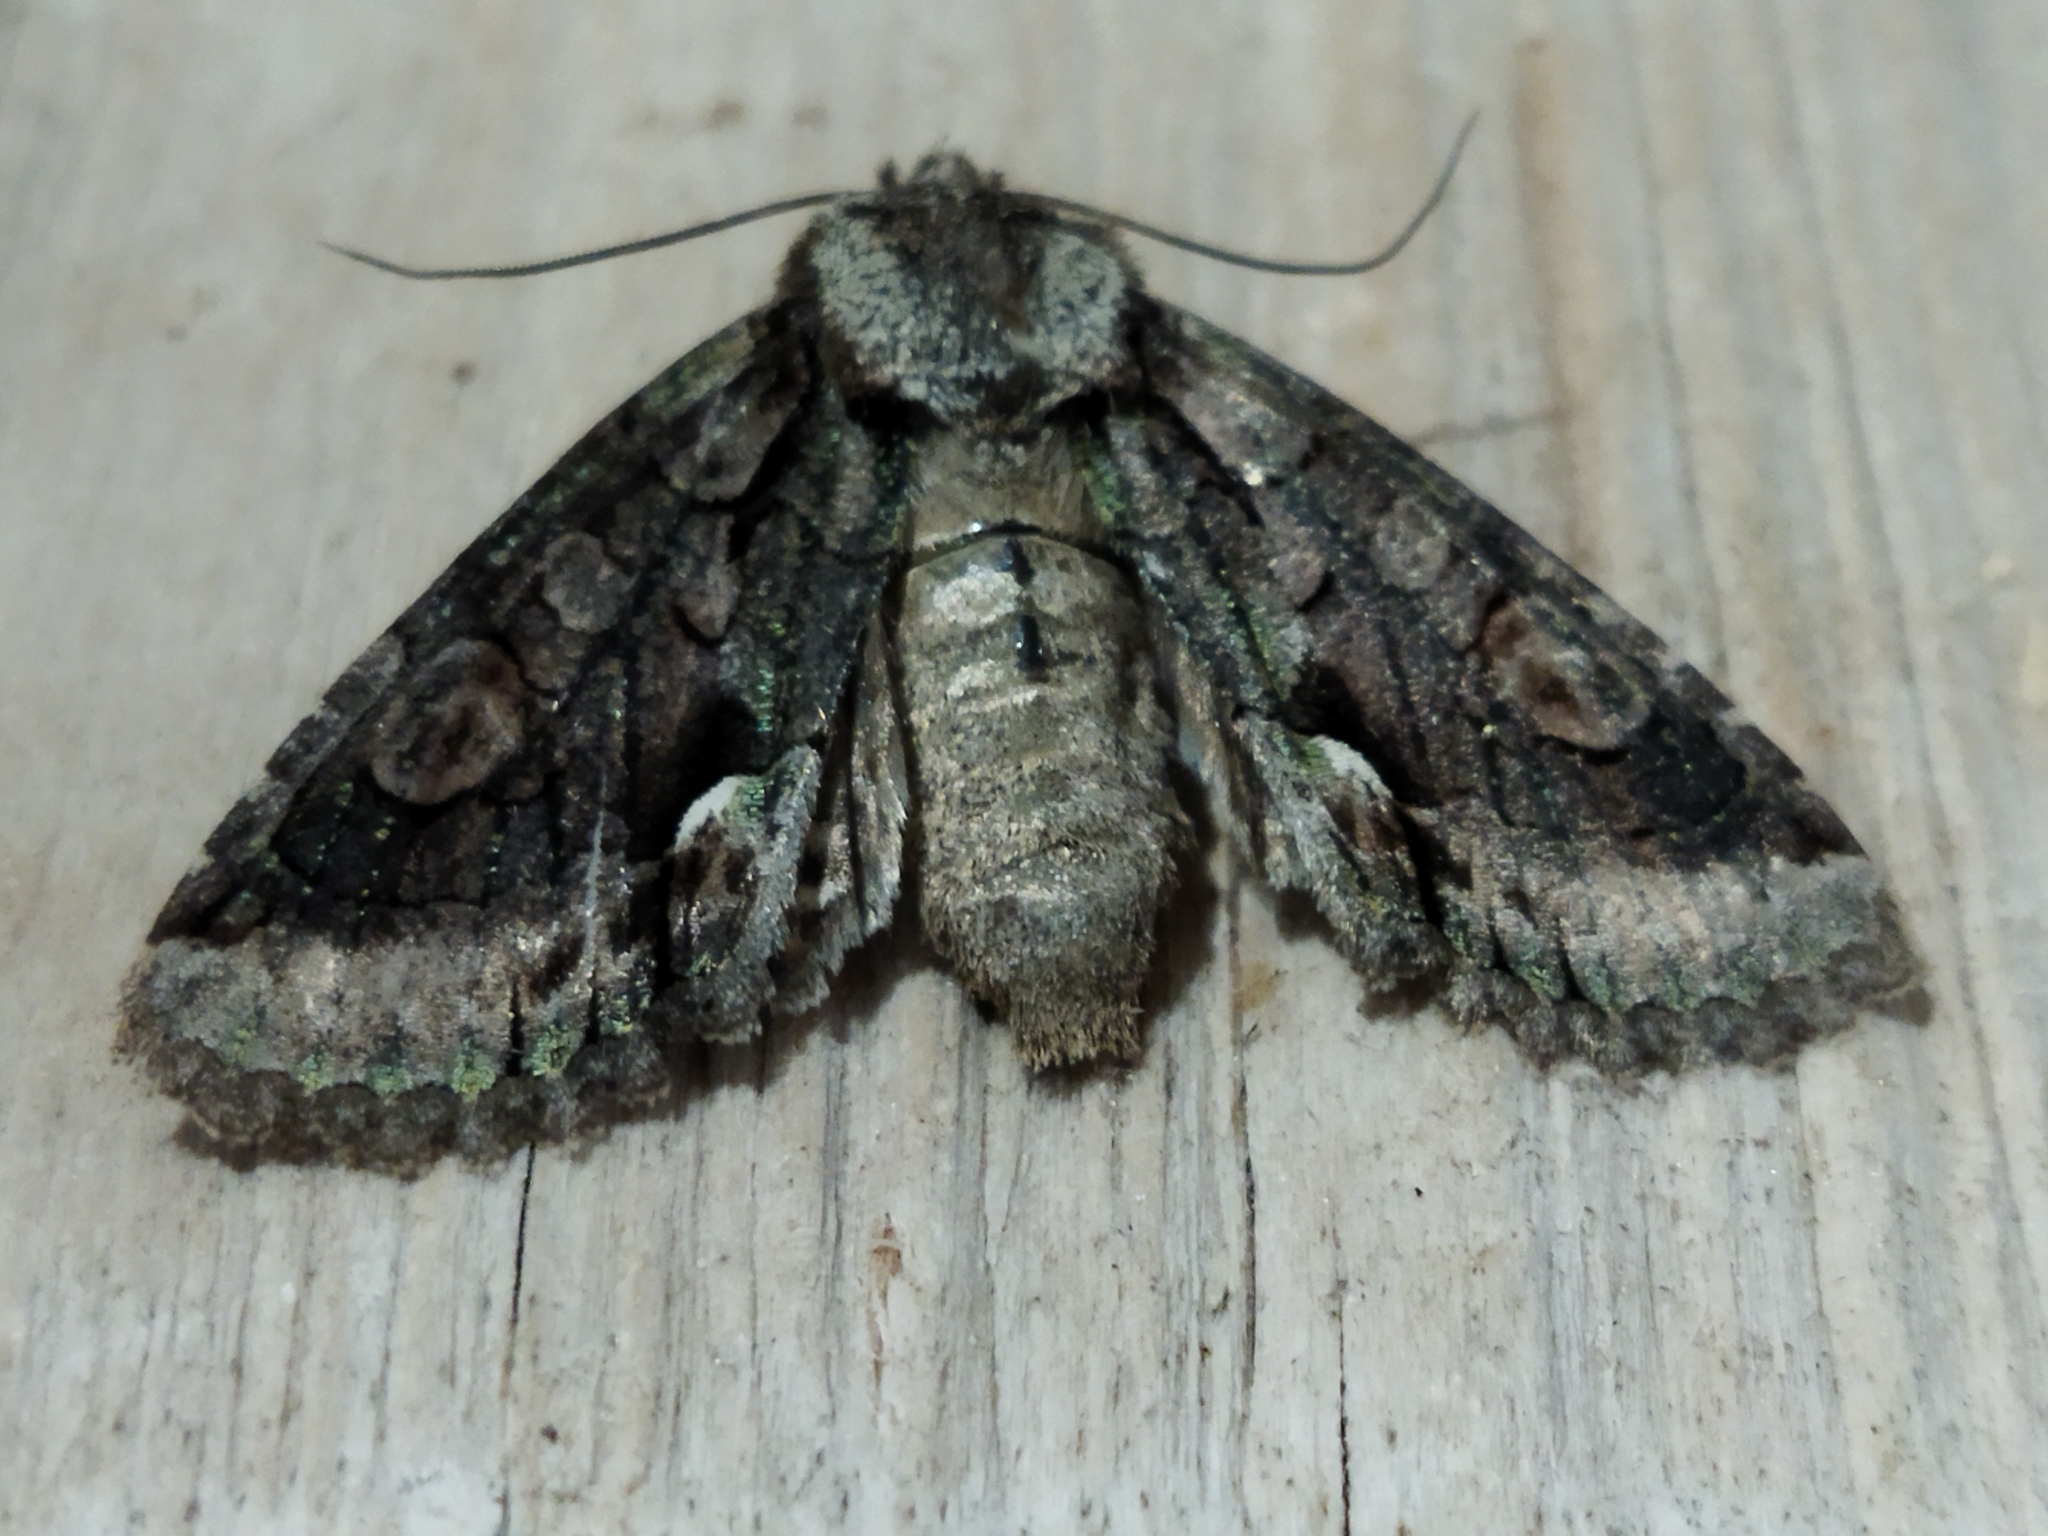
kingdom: Animalia
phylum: Arthropoda
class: Insecta
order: Lepidoptera
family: Noctuidae
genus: Allophyes
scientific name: Allophyes oxyacanthae
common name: Green-brindled crescent
